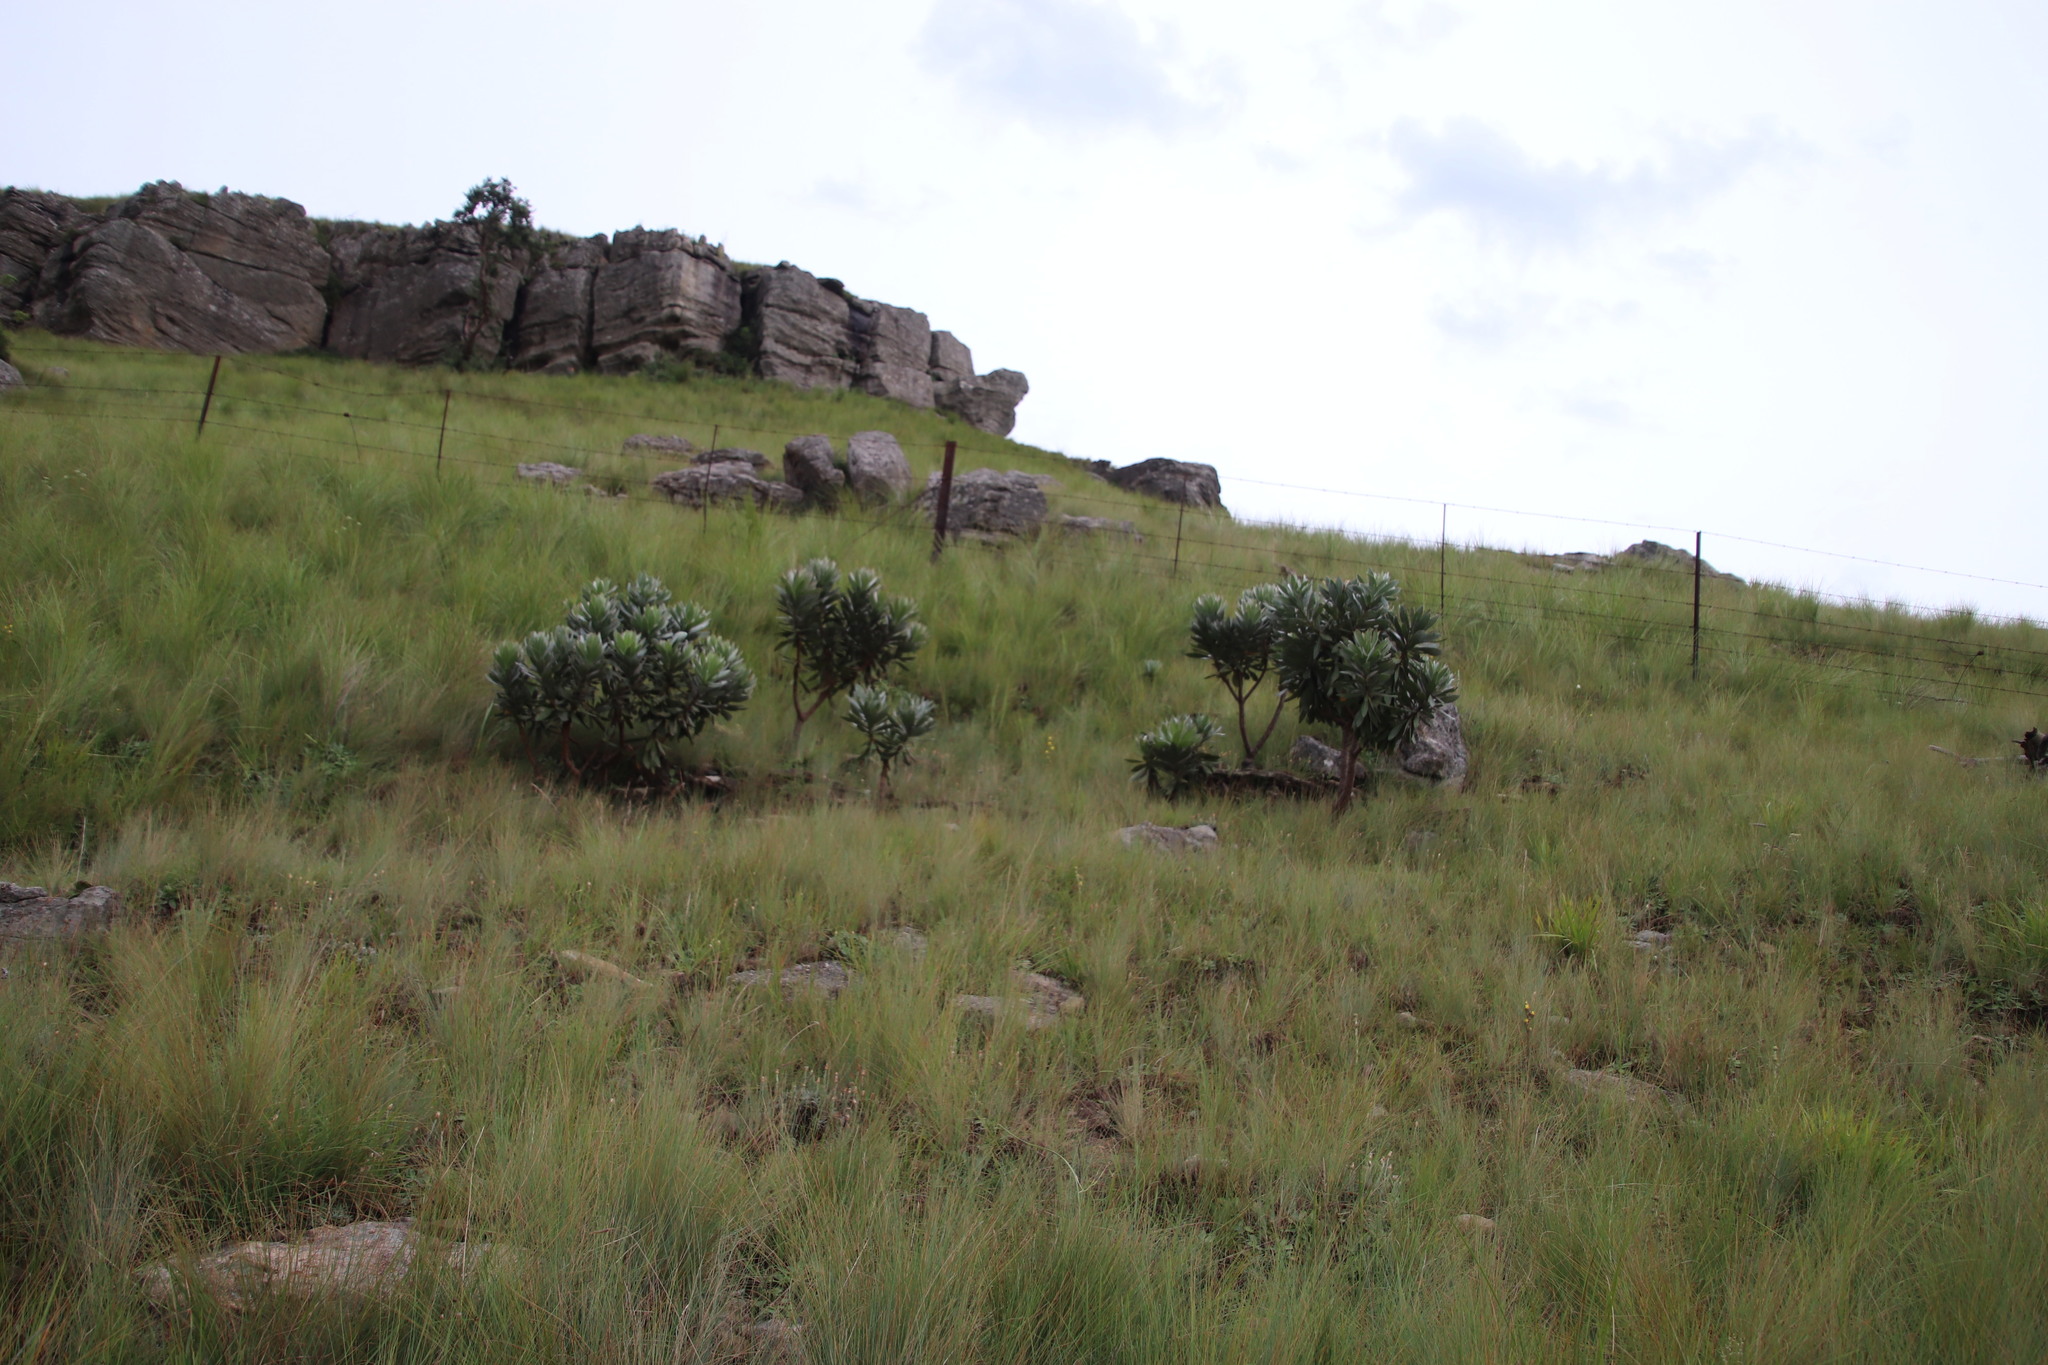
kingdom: Plantae
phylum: Tracheophyta
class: Magnoliopsida
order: Proteales
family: Proteaceae
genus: Protea
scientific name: Protea roupelliae
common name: Silver sugarbush
